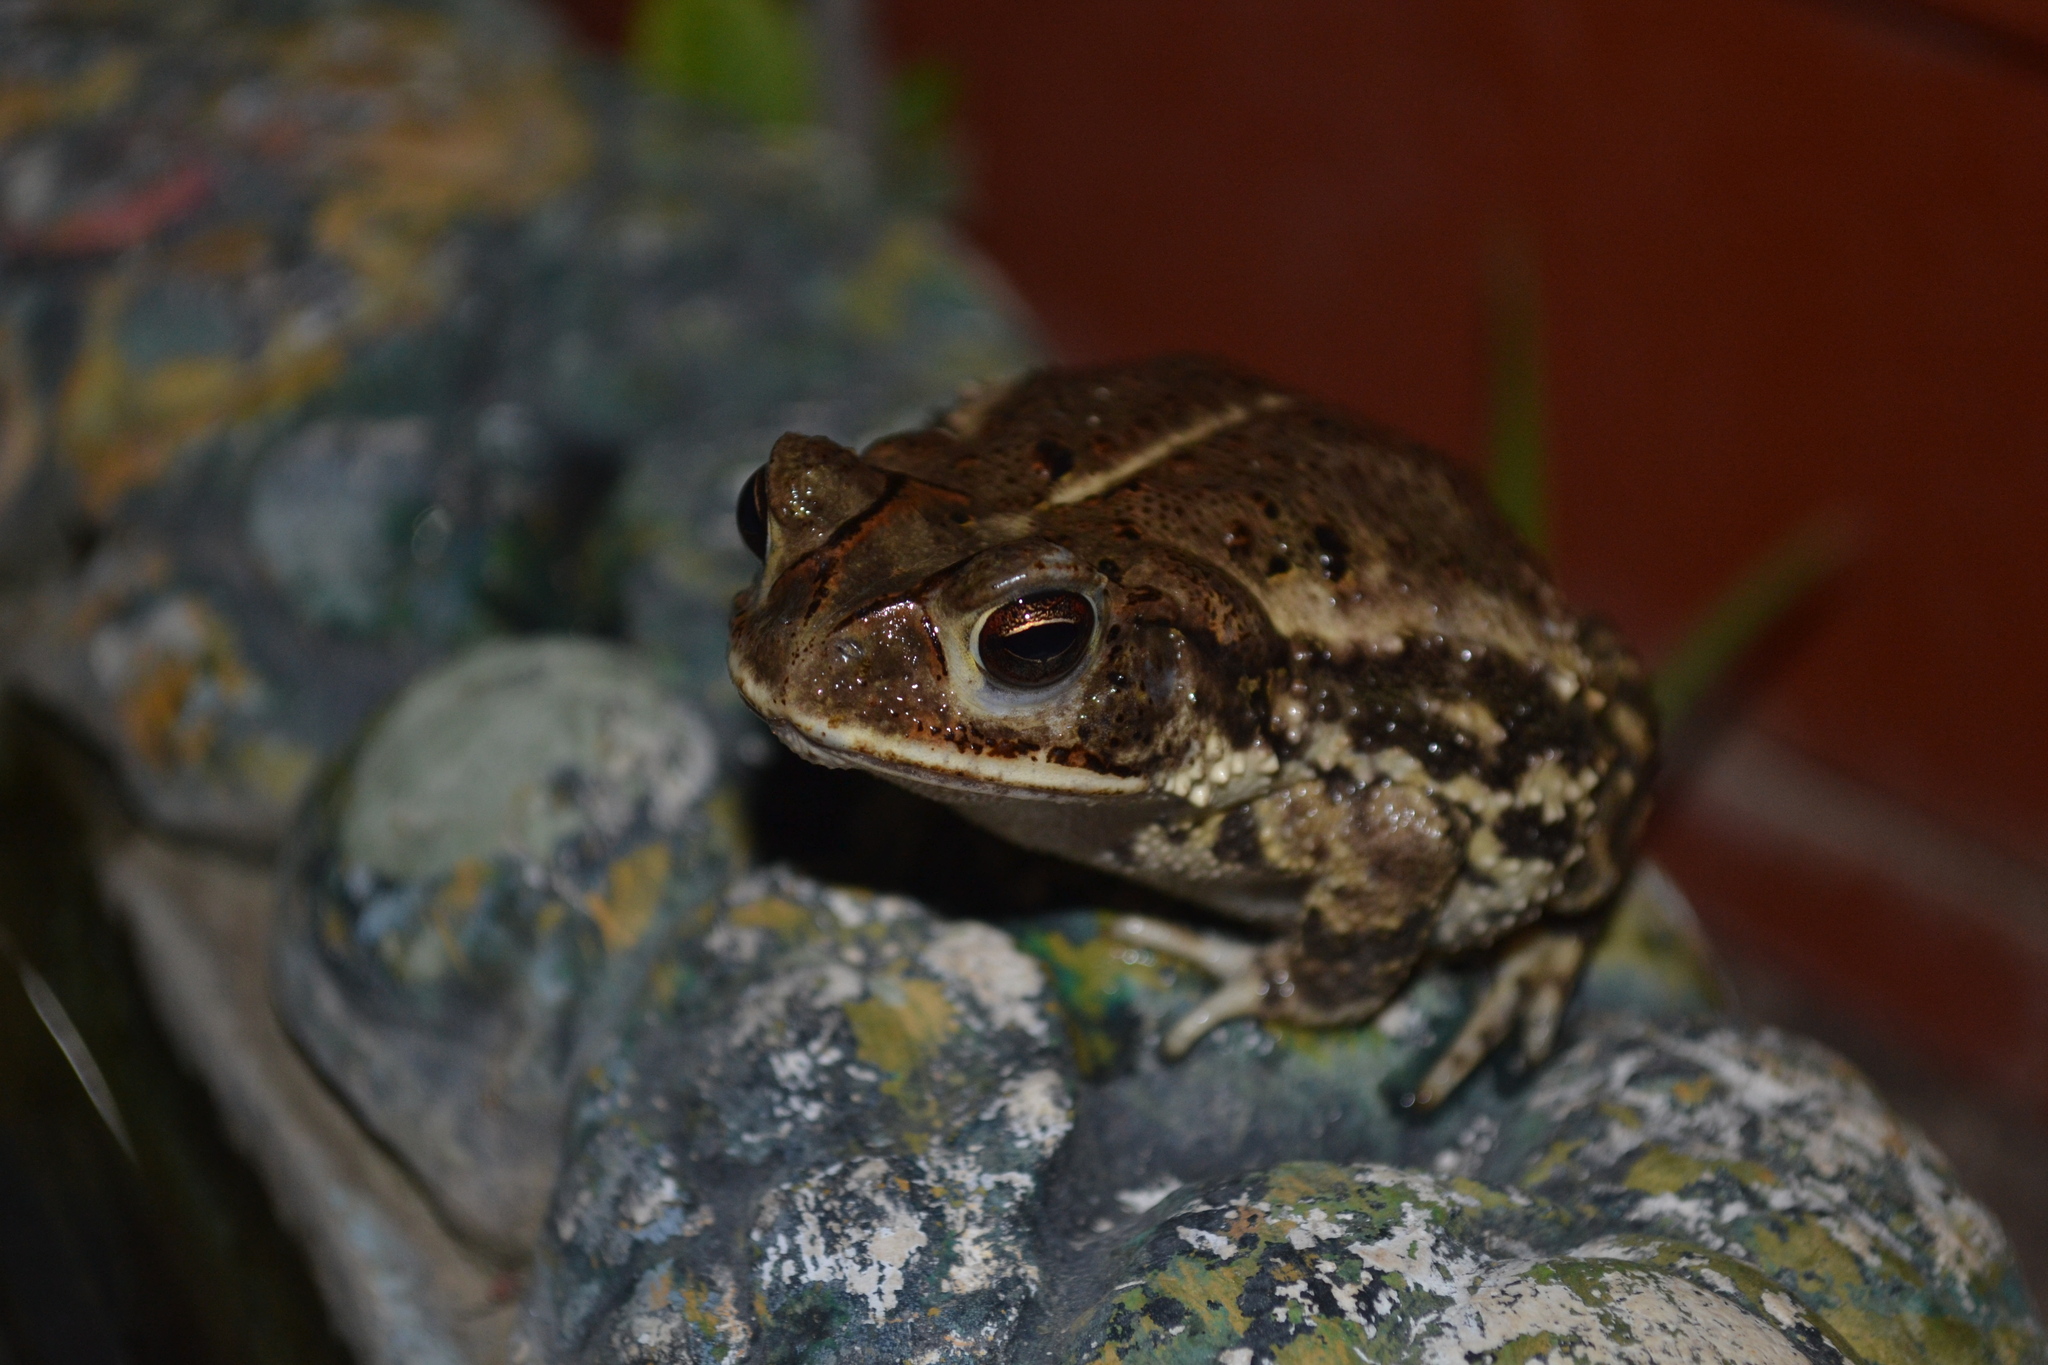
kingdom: Animalia
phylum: Chordata
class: Amphibia
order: Anura
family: Bufonidae
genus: Incilius
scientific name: Incilius valliceps
